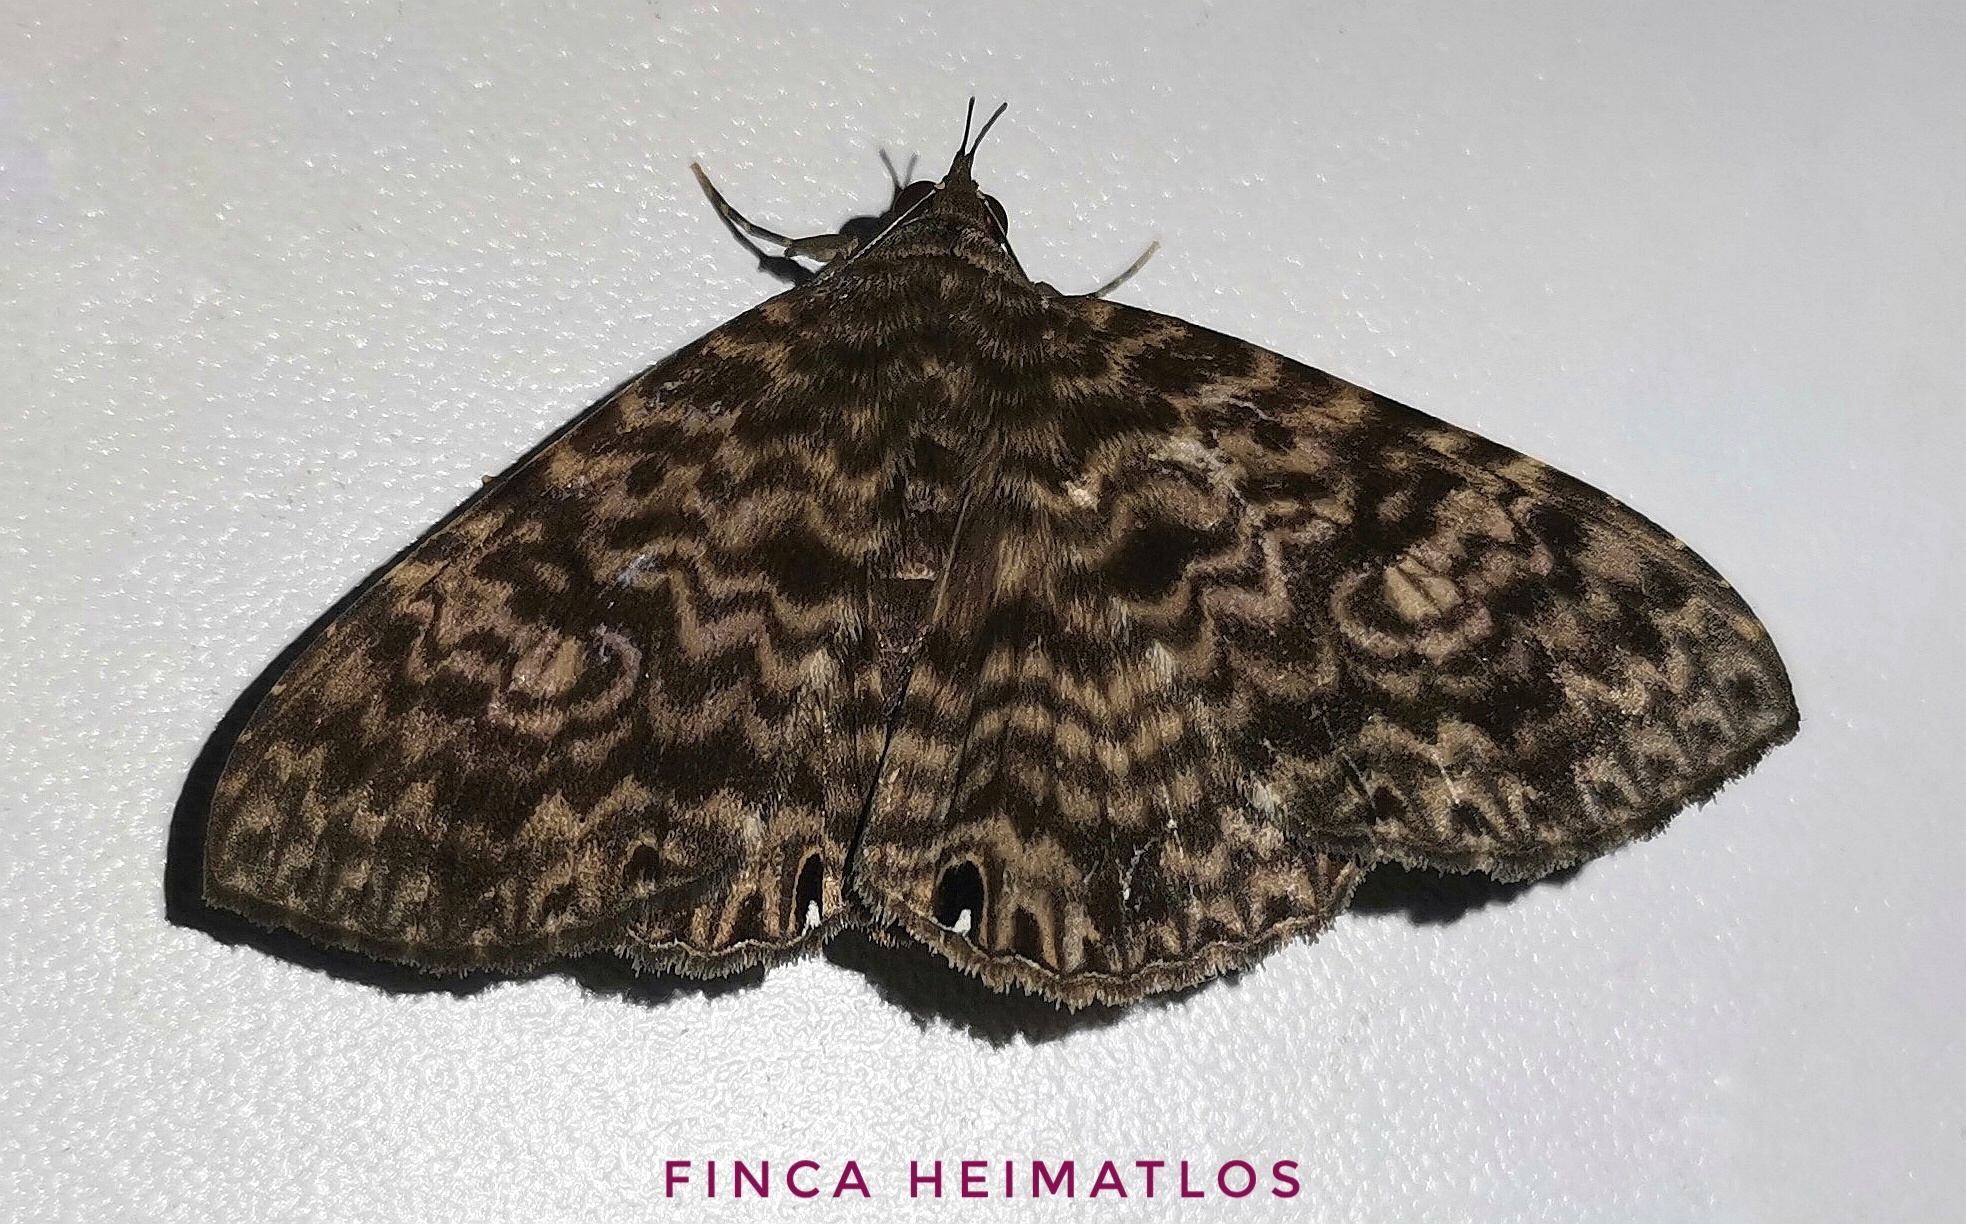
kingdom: Animalia
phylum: Arthropoda
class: Insecta
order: Lepidoptera
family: Erebidae
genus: Dialithis
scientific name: Dialithis gemmifera
